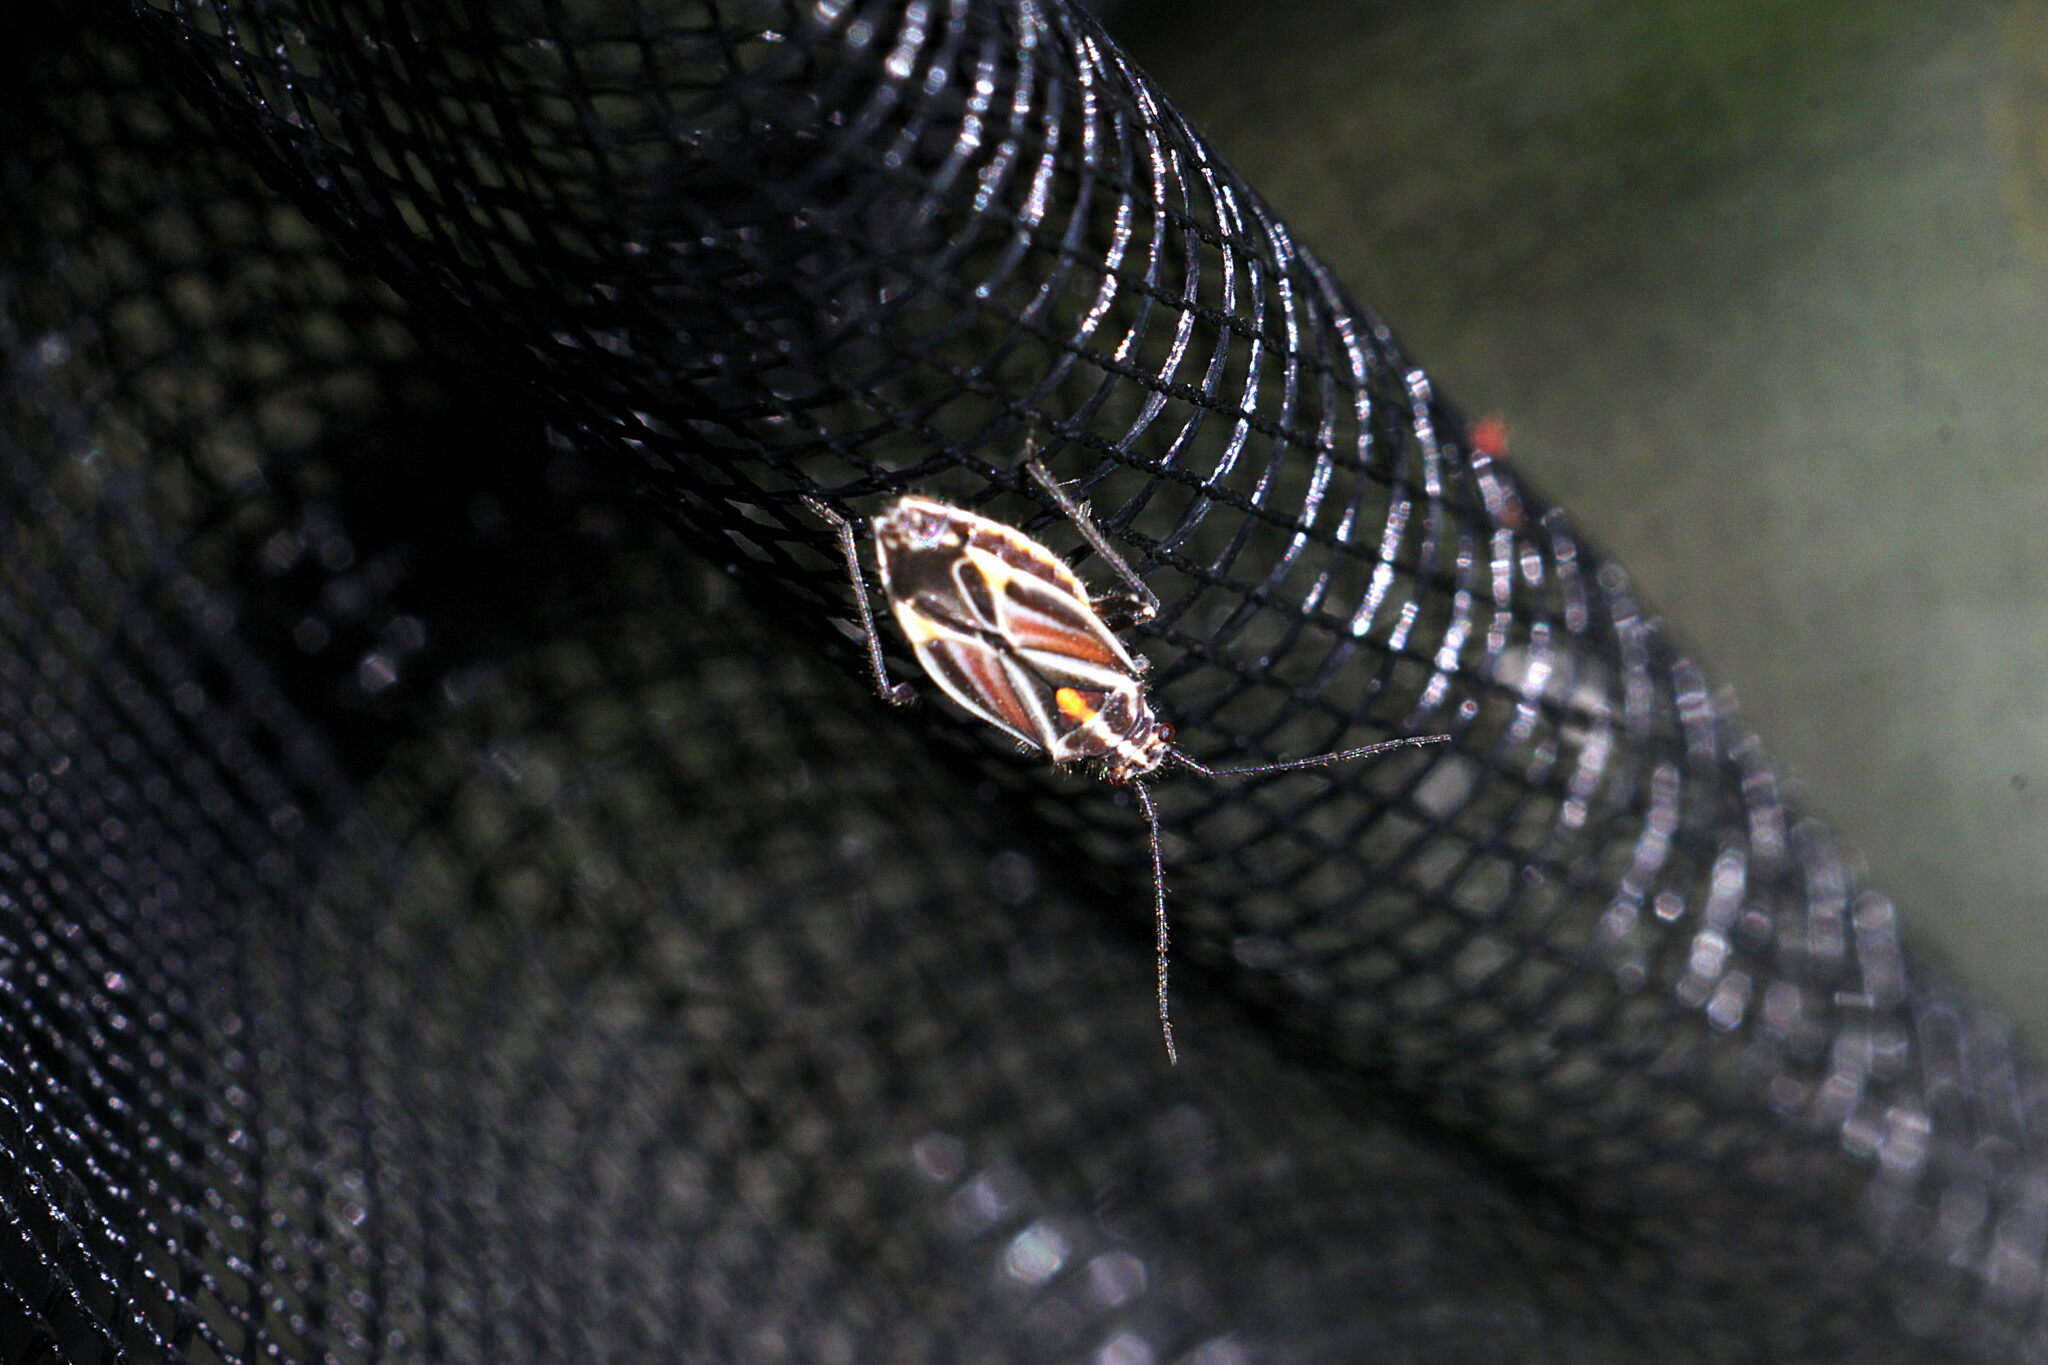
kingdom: Animalia
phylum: Arthropoda
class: Insecta
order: Hemiptera
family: Miridae
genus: Horistus
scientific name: Horistus orientalis
